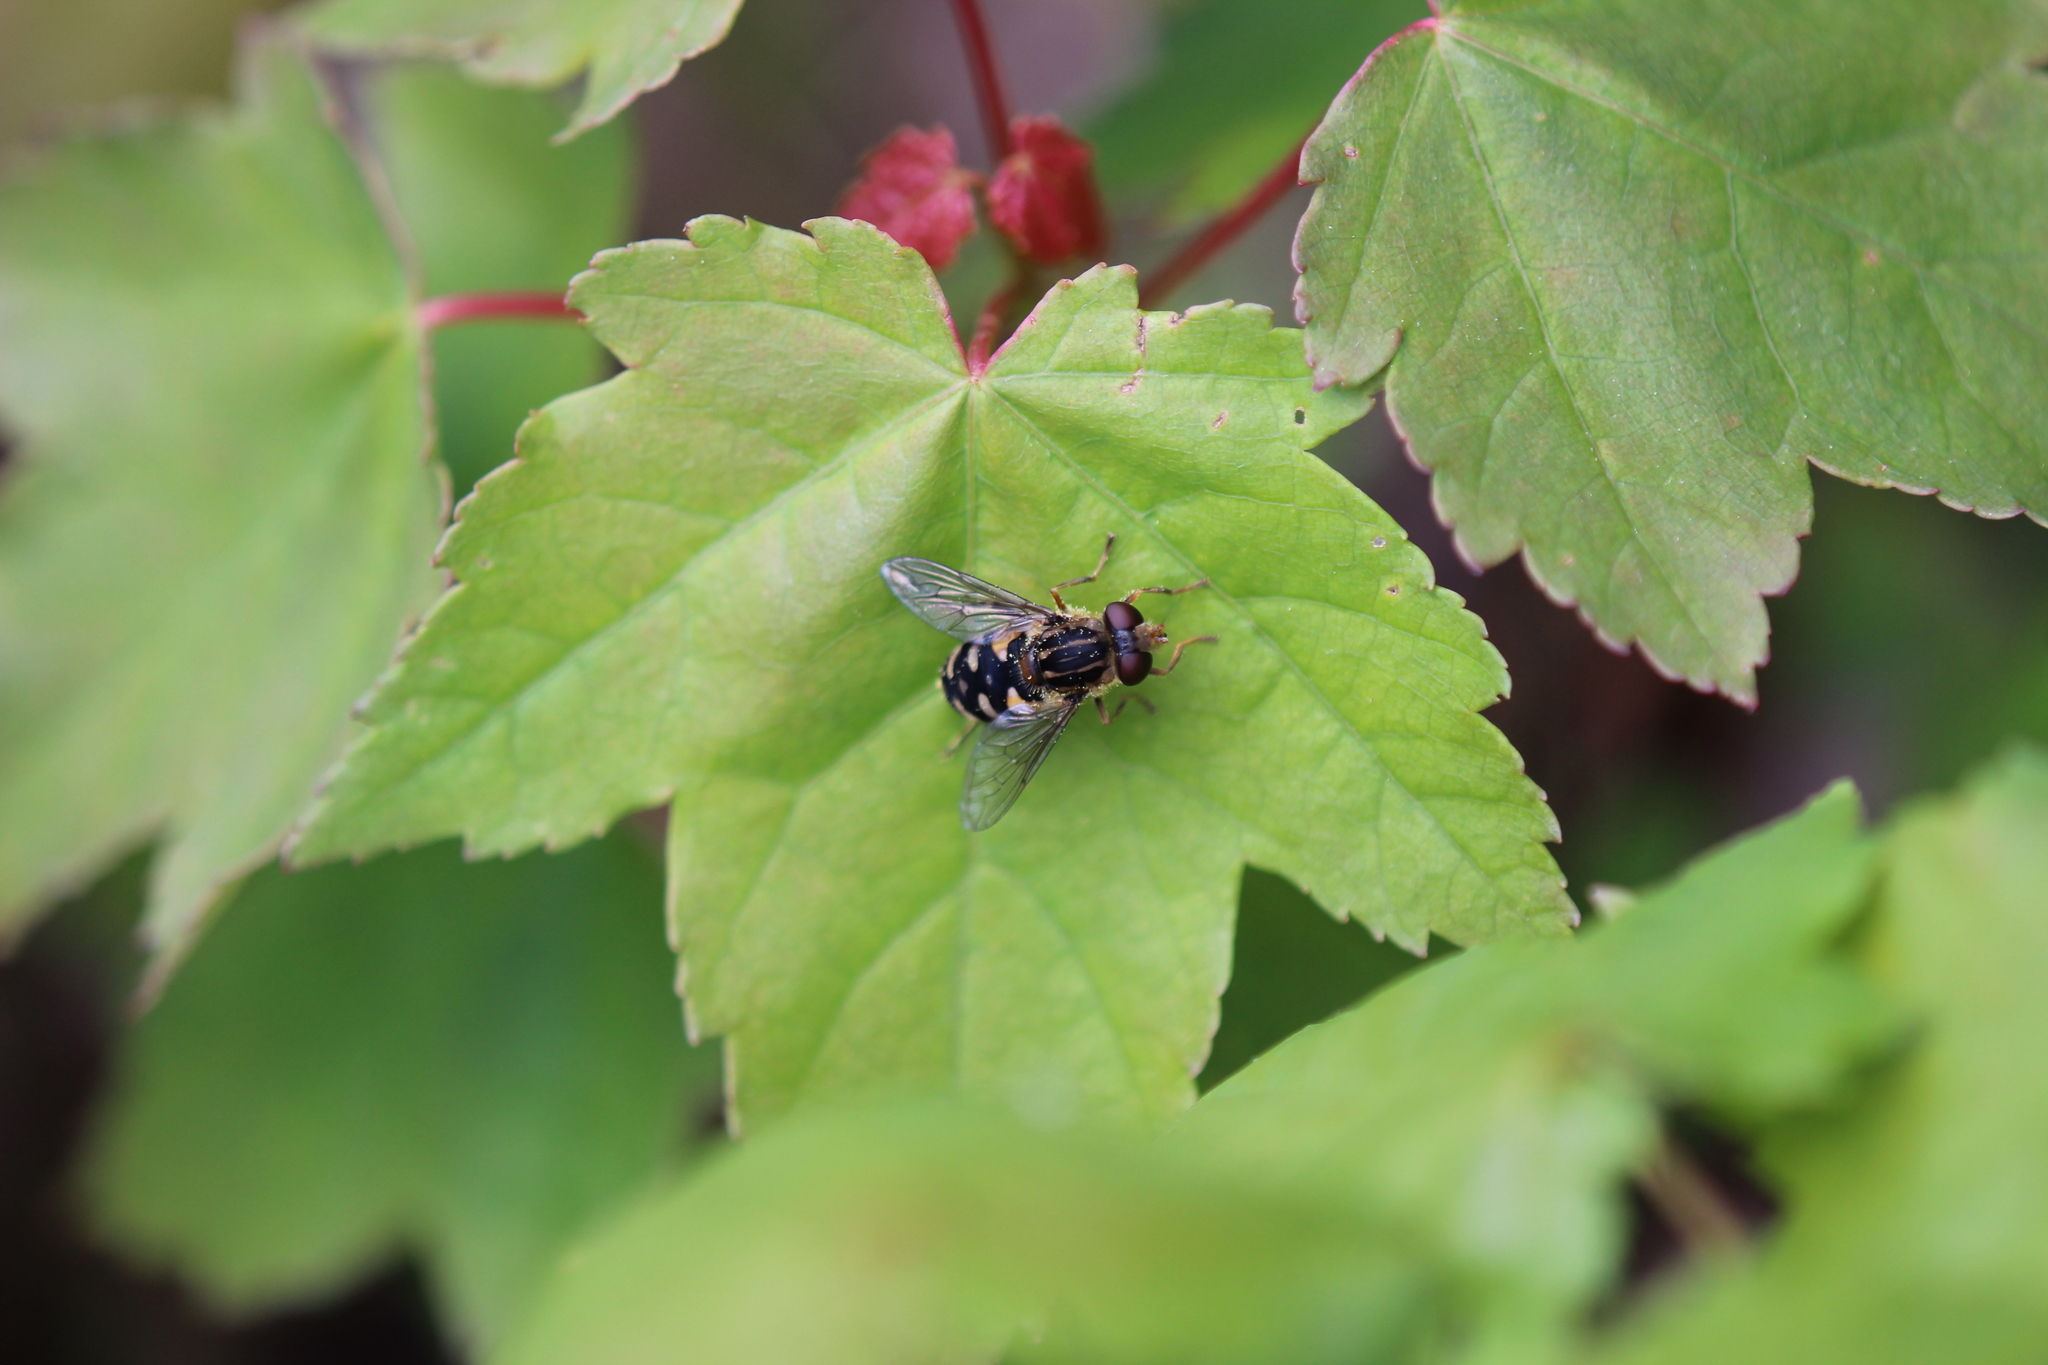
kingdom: Animalia
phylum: Arthropoda
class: Insecta
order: Diptera
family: Syrphidae
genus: Parhelophilus
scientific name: Parhelophilus rex
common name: Dusky bog fly
